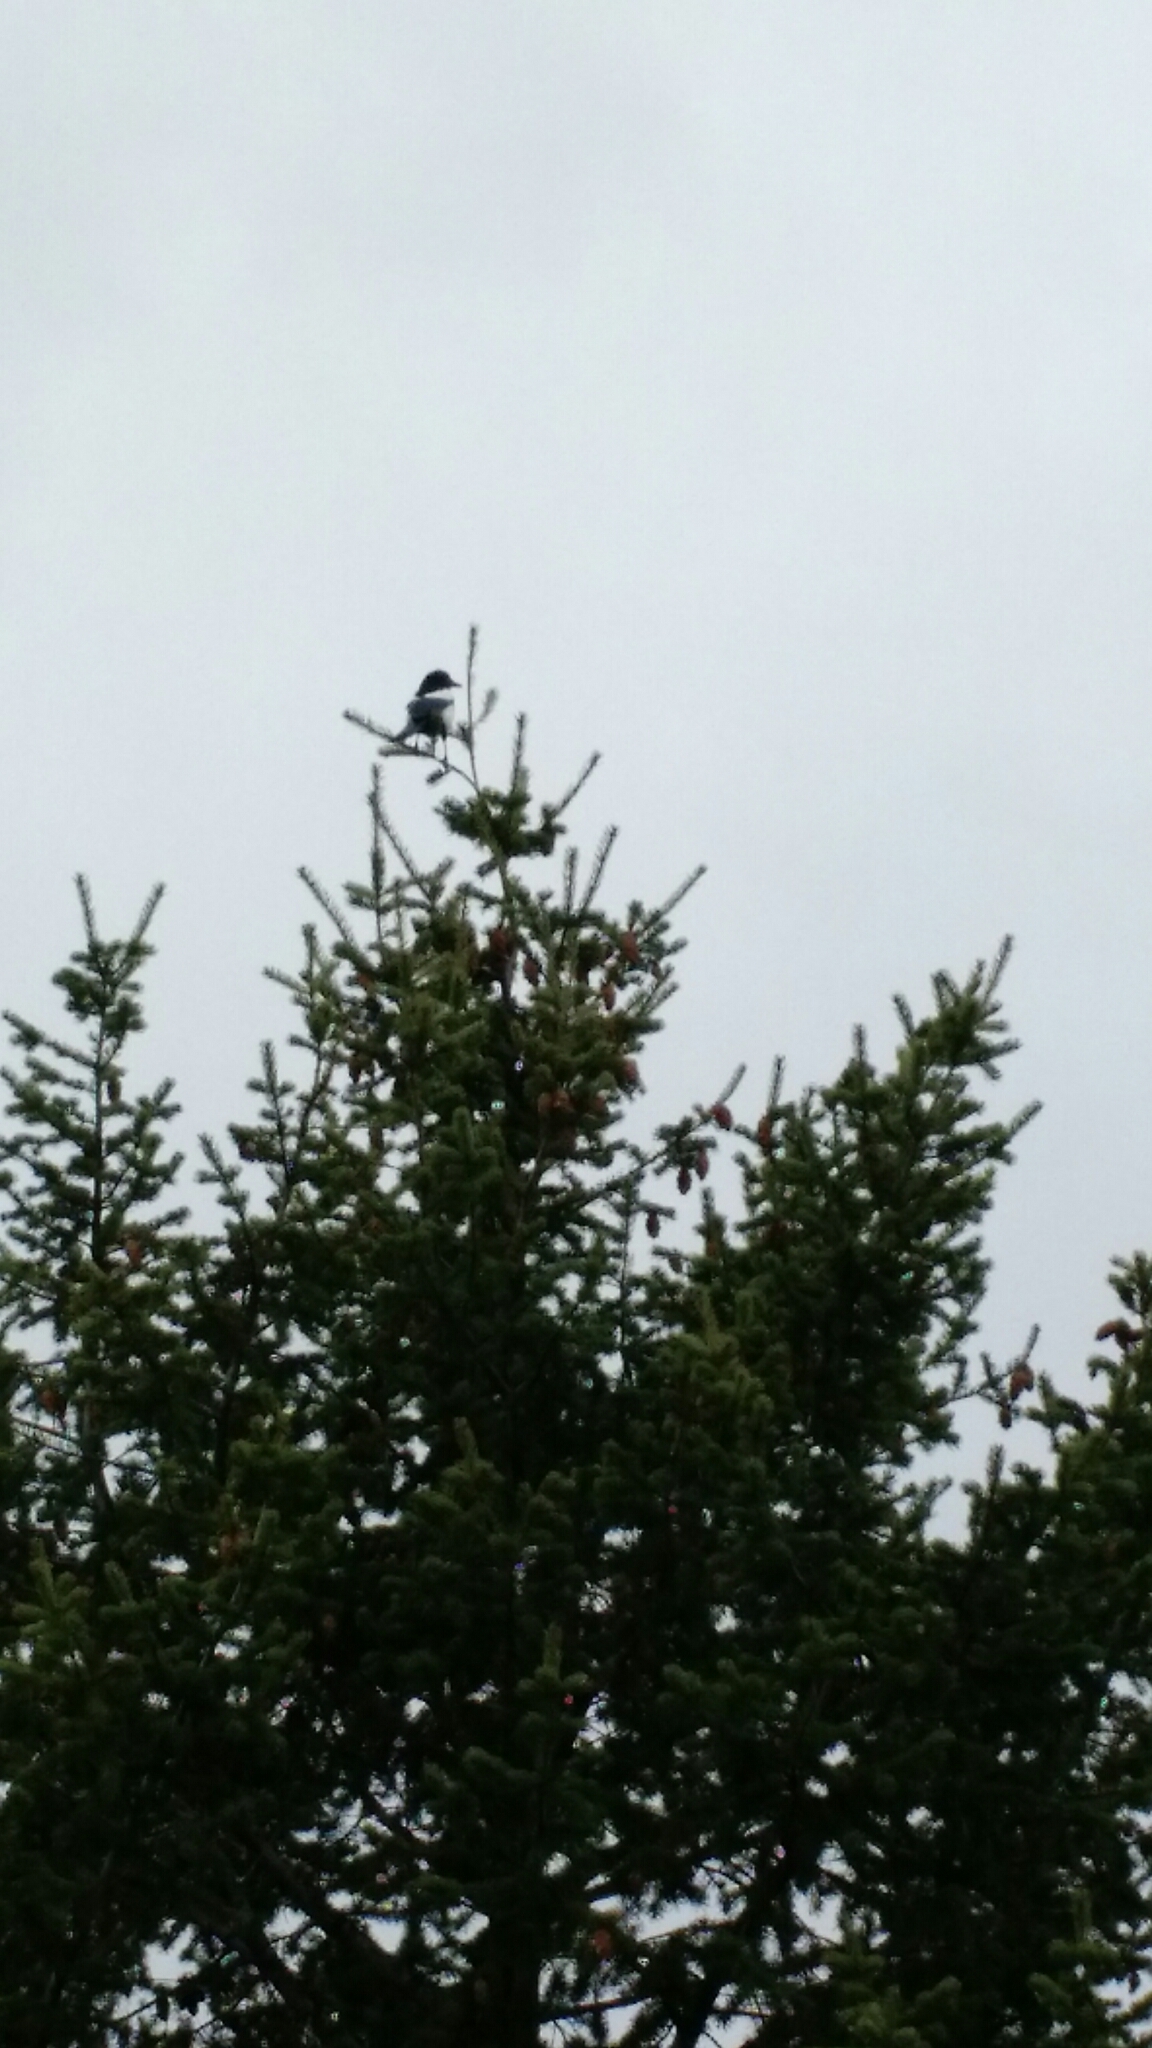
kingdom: Animalia
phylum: Chordata
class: Aves
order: Passeriformes
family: Corvidae
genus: Pica
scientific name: Pica hudsonia
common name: Black-billed magpie
